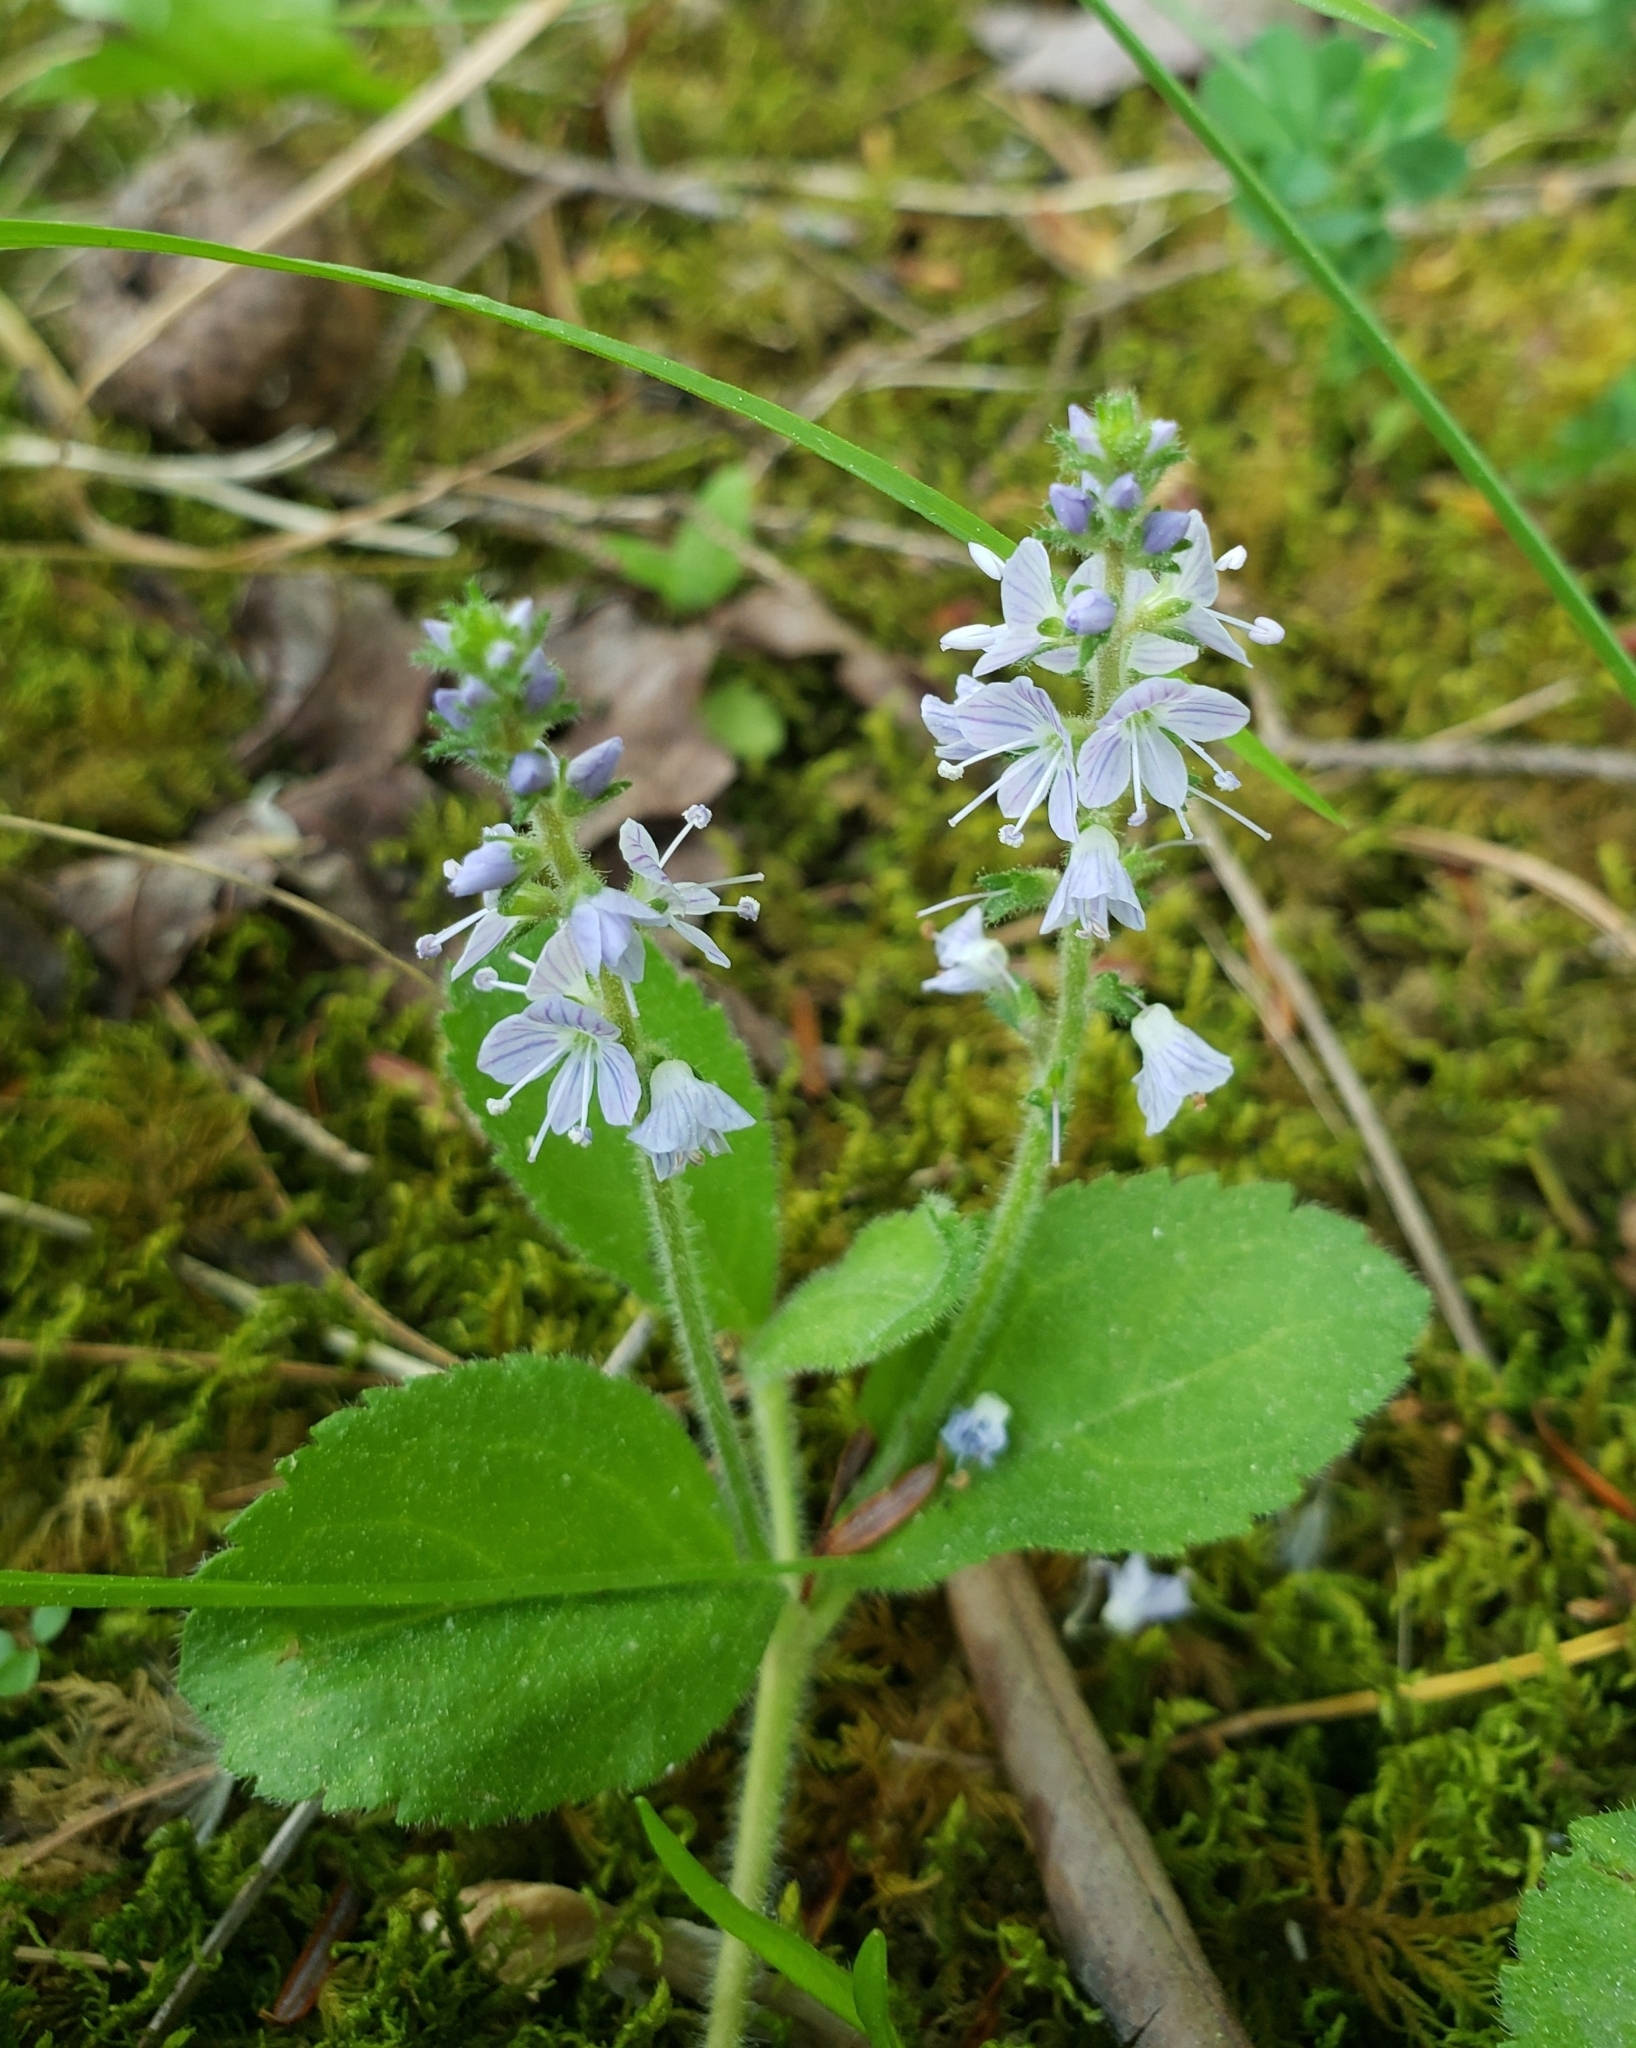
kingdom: Plantae
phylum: Tracheophyta
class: Magnoliopsida
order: Lamiales
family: Plantaginaceae
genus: Veronica
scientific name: Veronica officinalis
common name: Common speedwell
